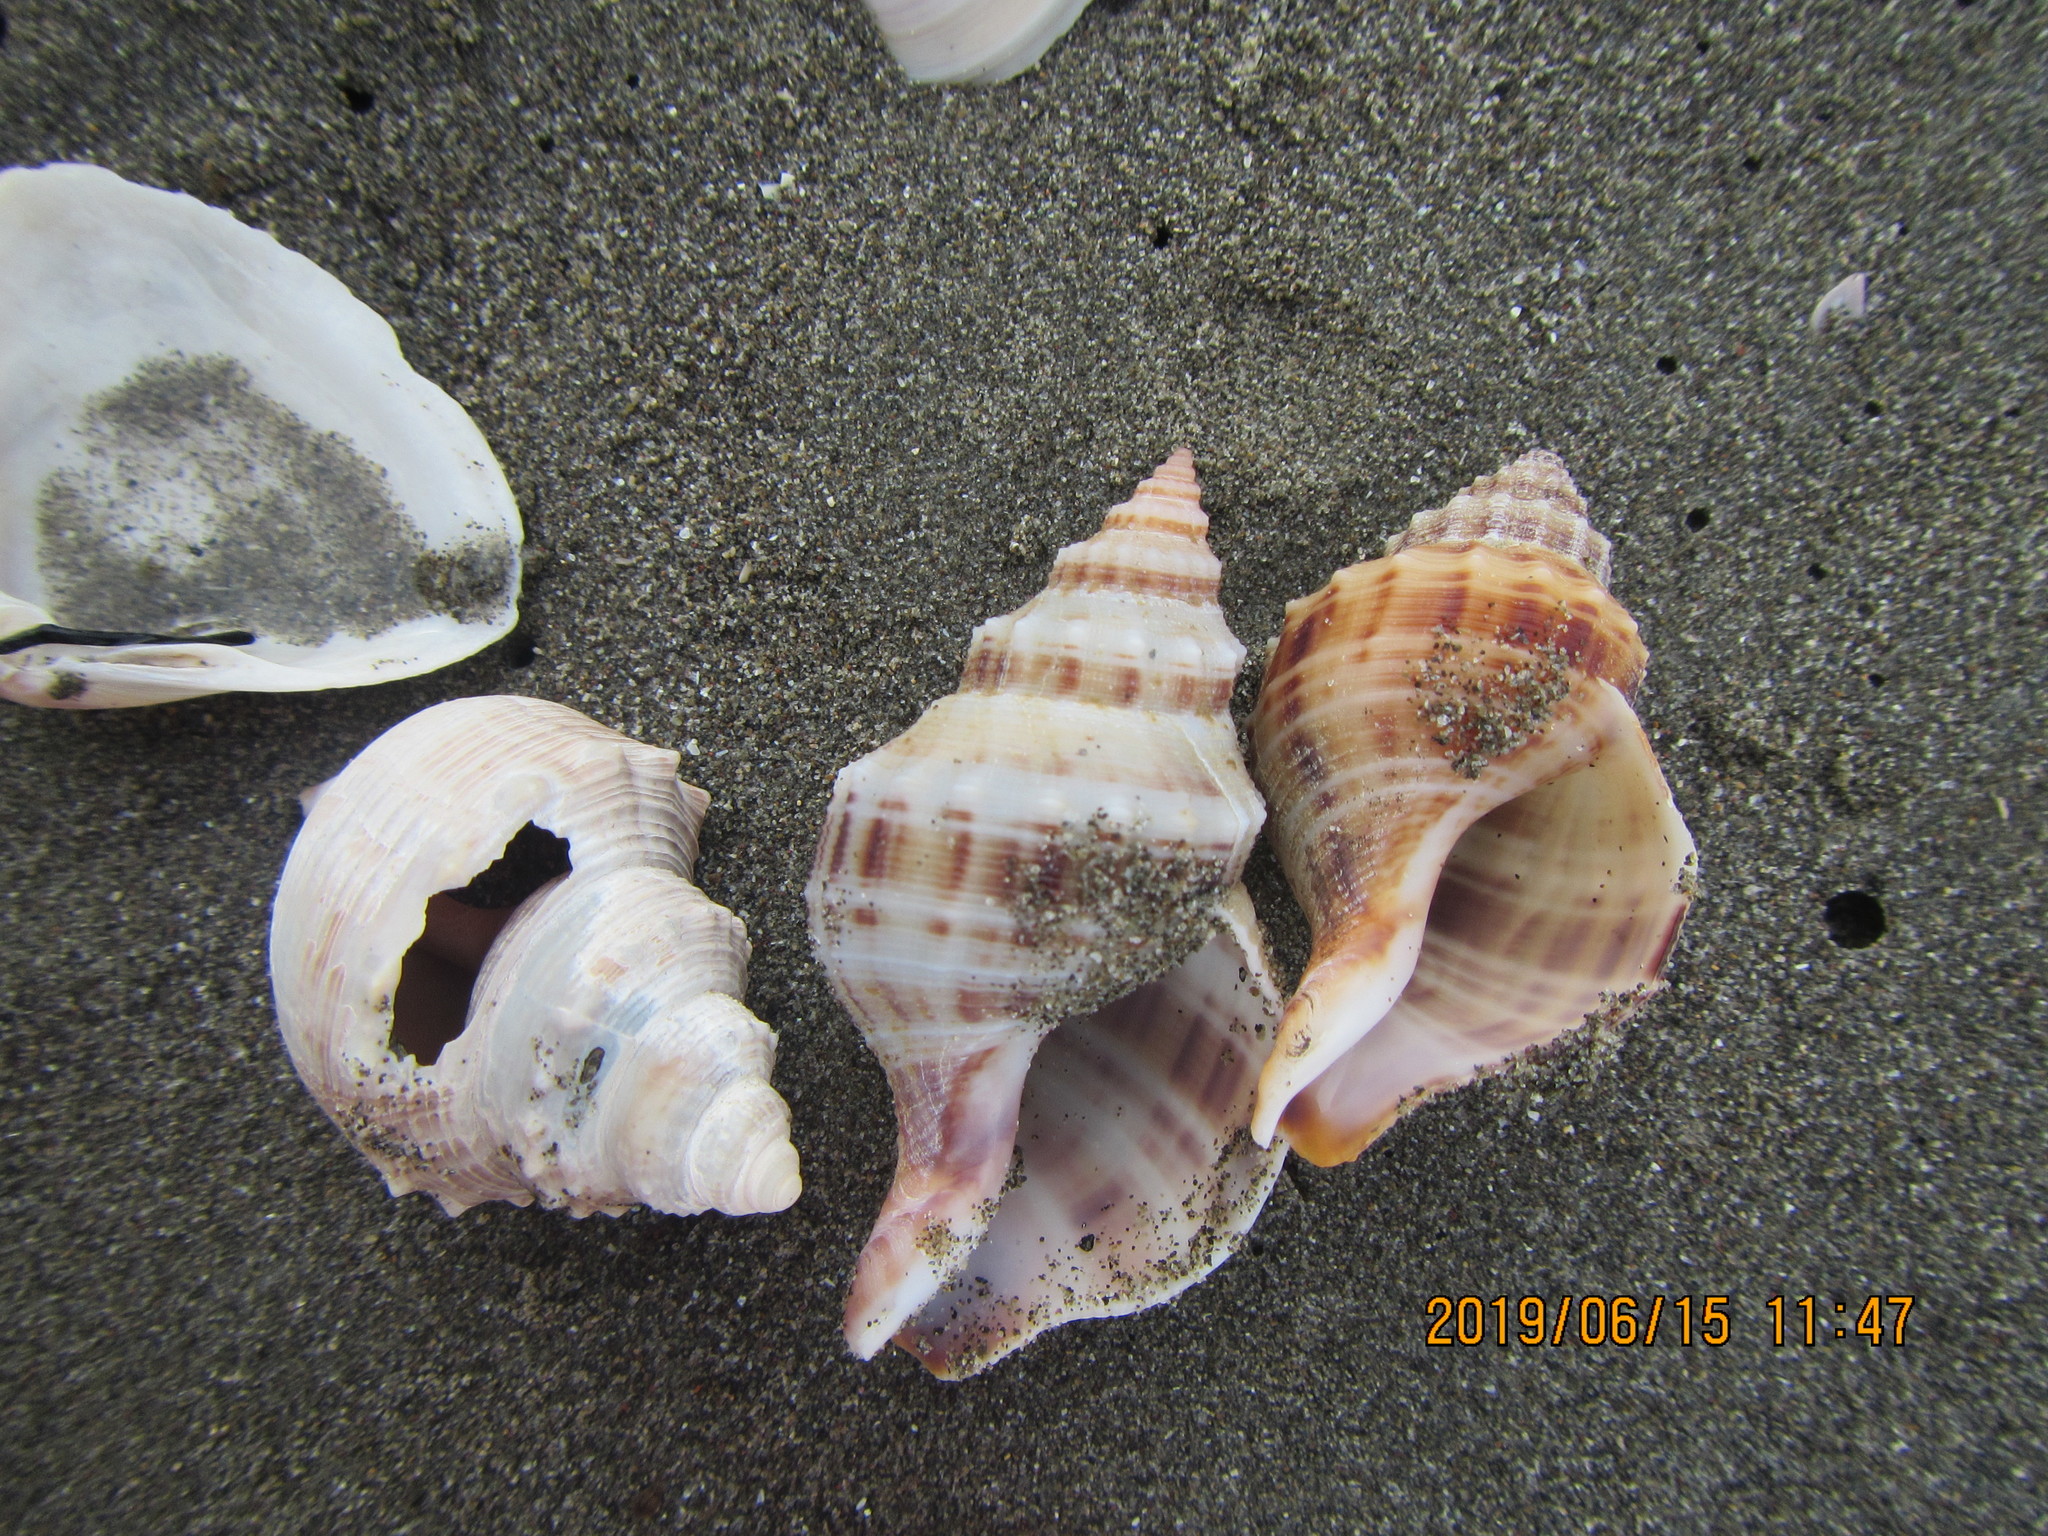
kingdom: Animalia
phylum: Mollusca
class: Gastropoda
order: Neogastropoda
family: Prosiphonidae
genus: Austrofusus
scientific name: Austrofusus glans
